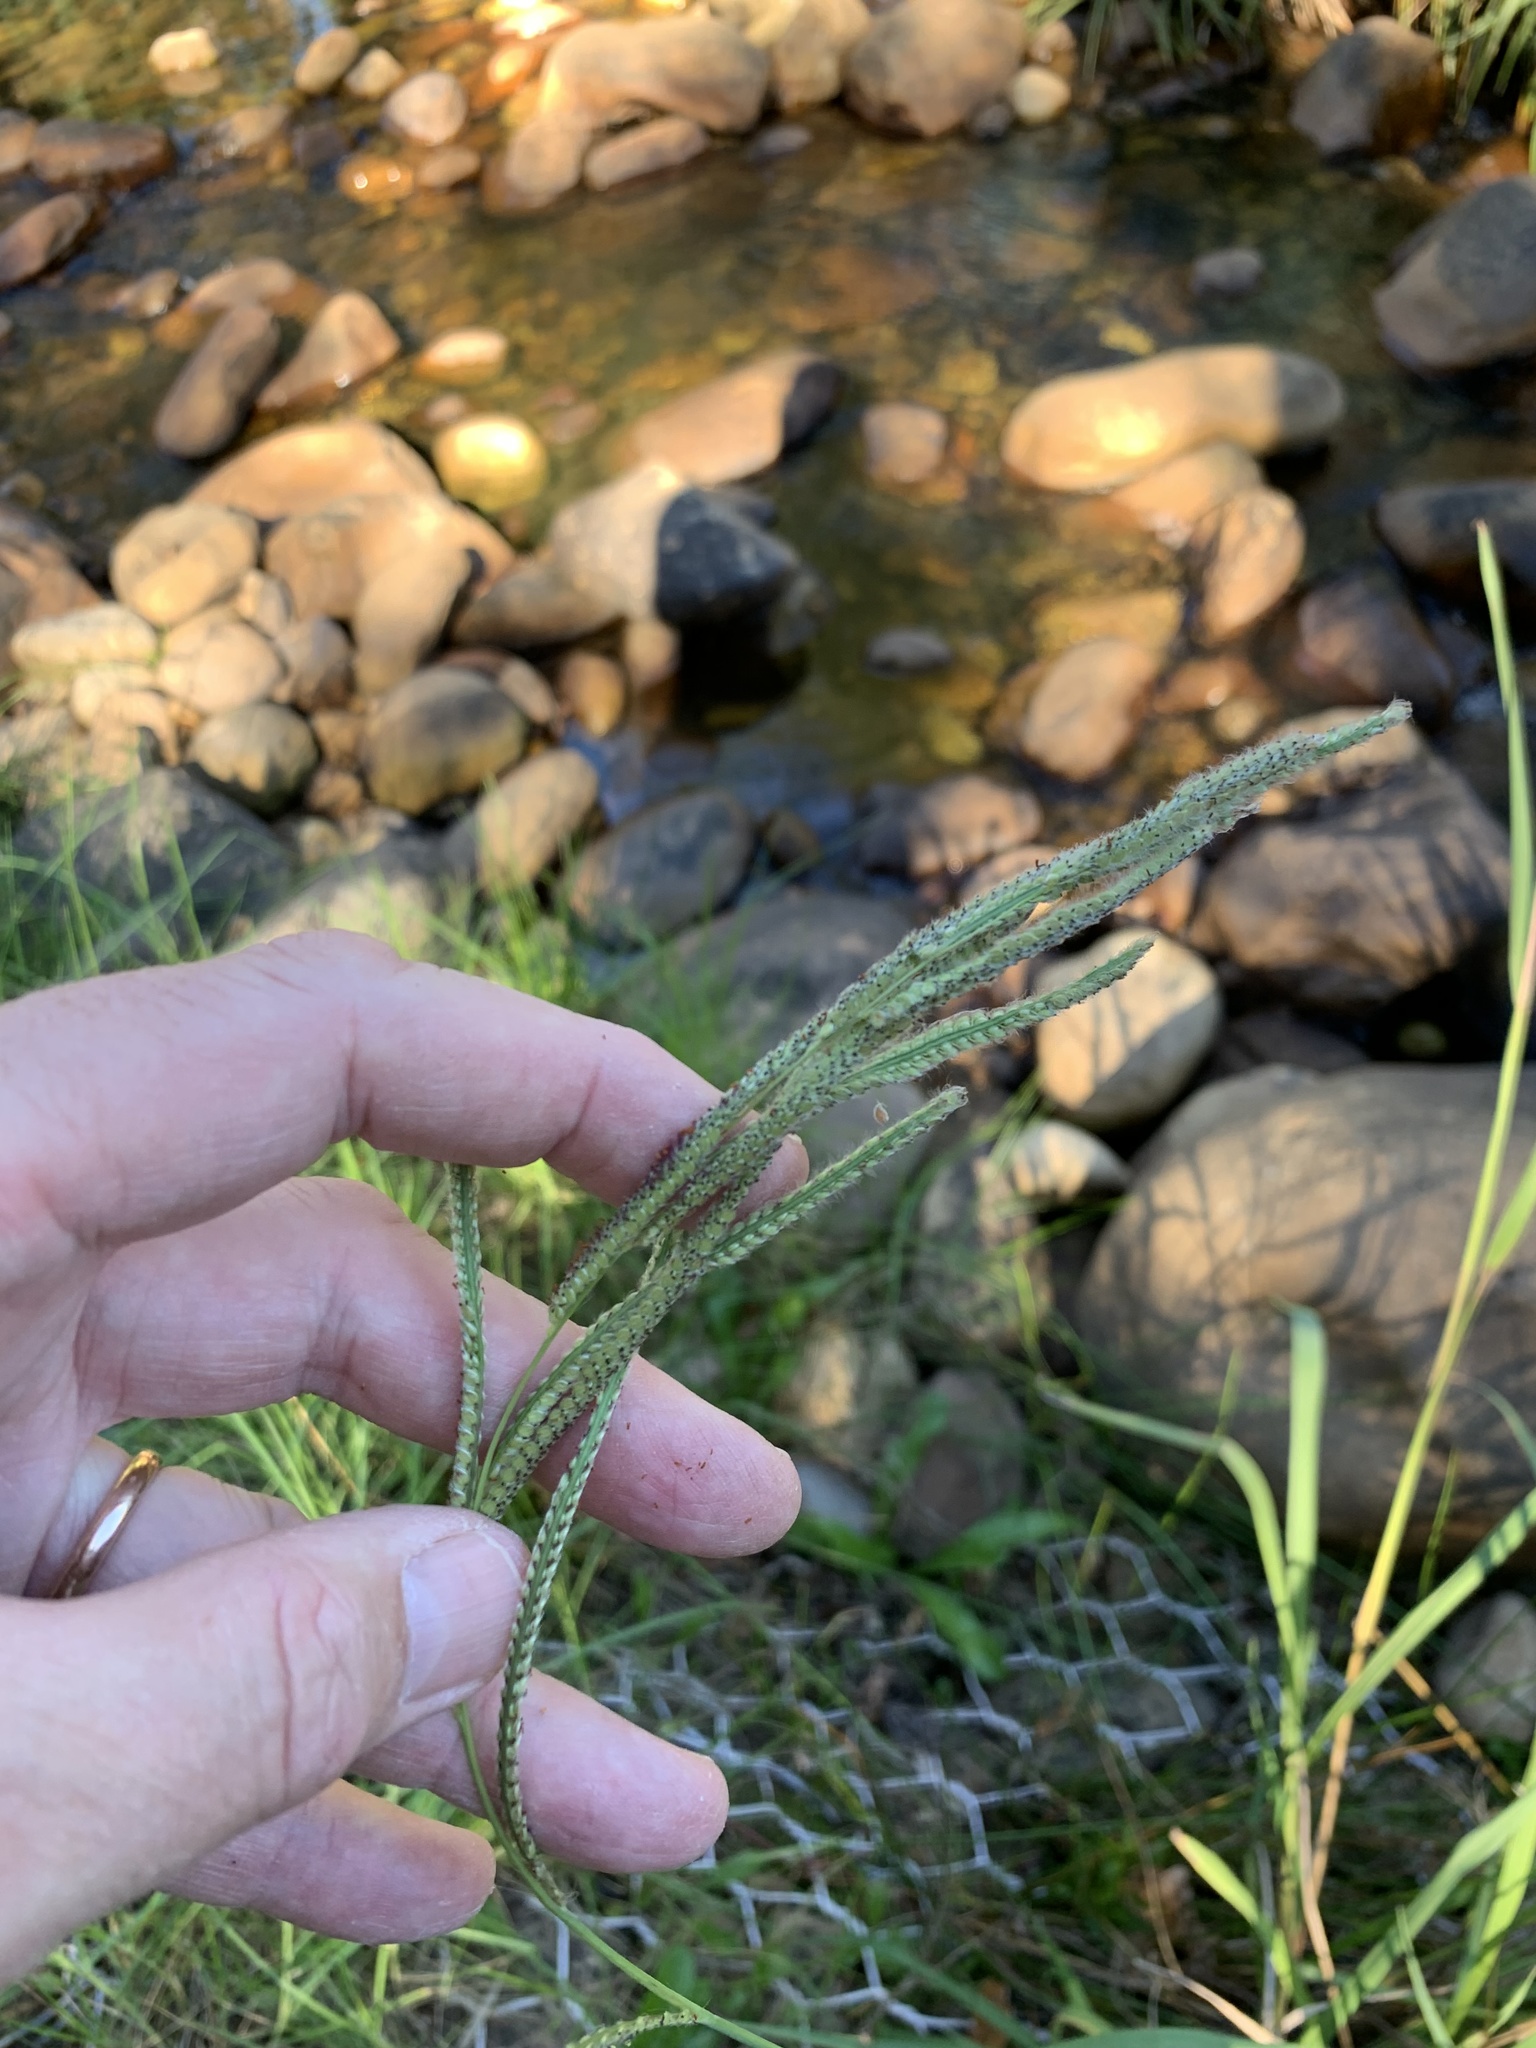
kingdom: Plantae
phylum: Tracheophyta
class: Liliopsida
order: Poales
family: Poaceae
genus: Paspalum
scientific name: Paspalum urvillei
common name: Vasey's grass
